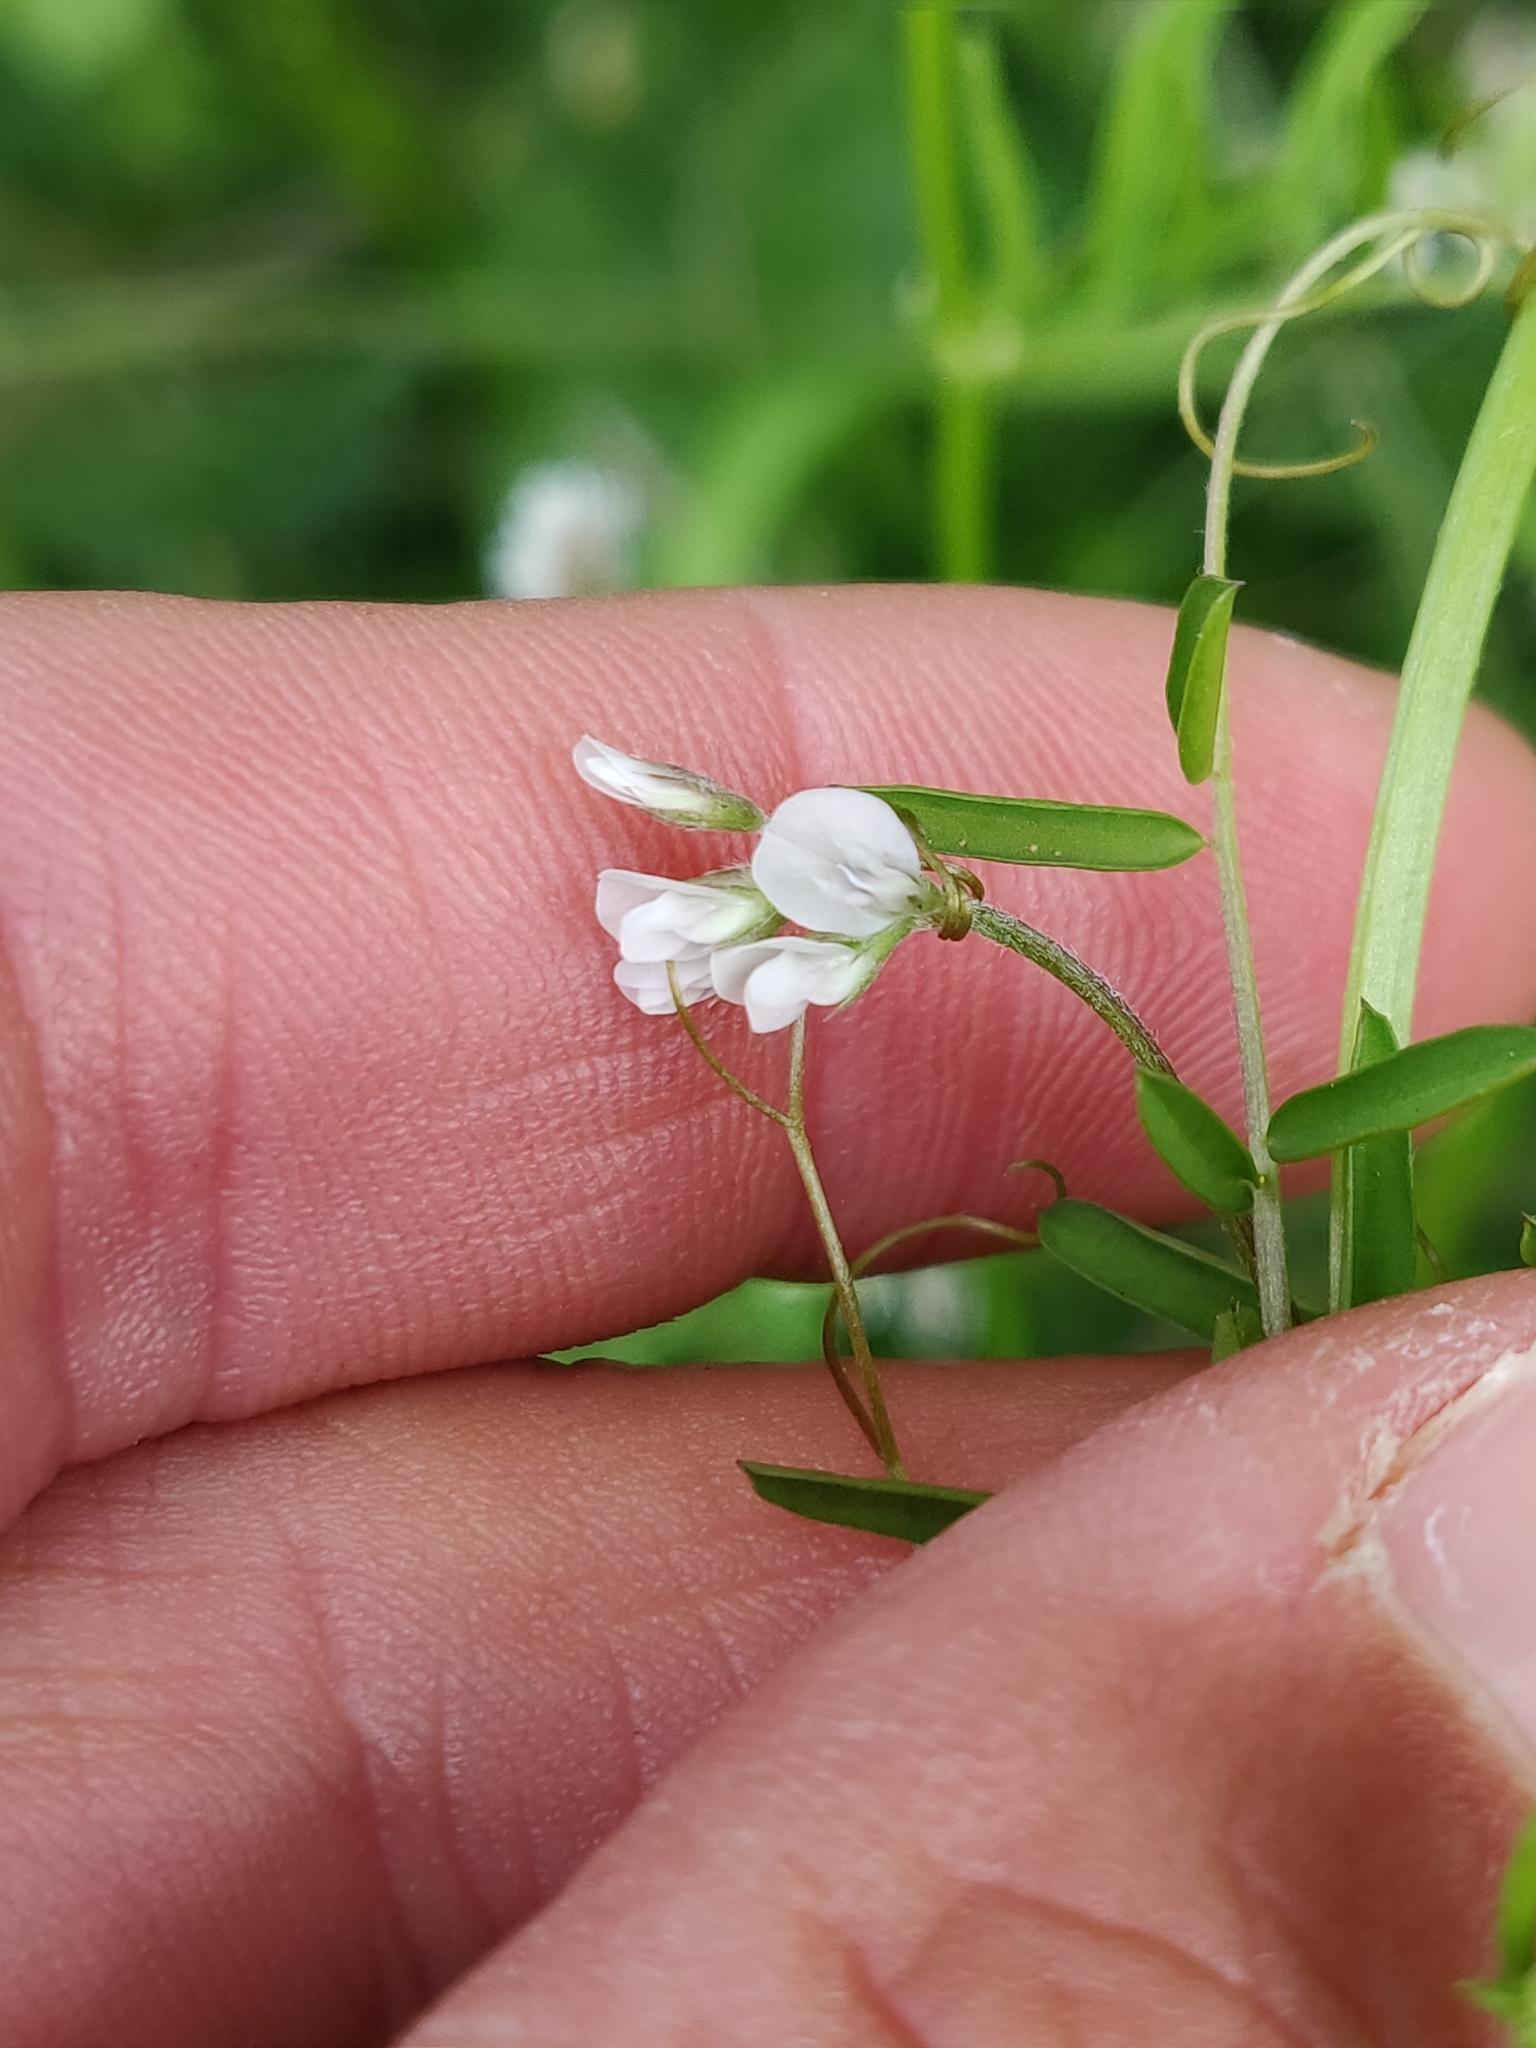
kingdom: Plantae
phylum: Tracheophyta
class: Magnoliopsida
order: Fabales
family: Fabaceae
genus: Vicia
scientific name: Vicia hirsuta
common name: Tiny vetch
